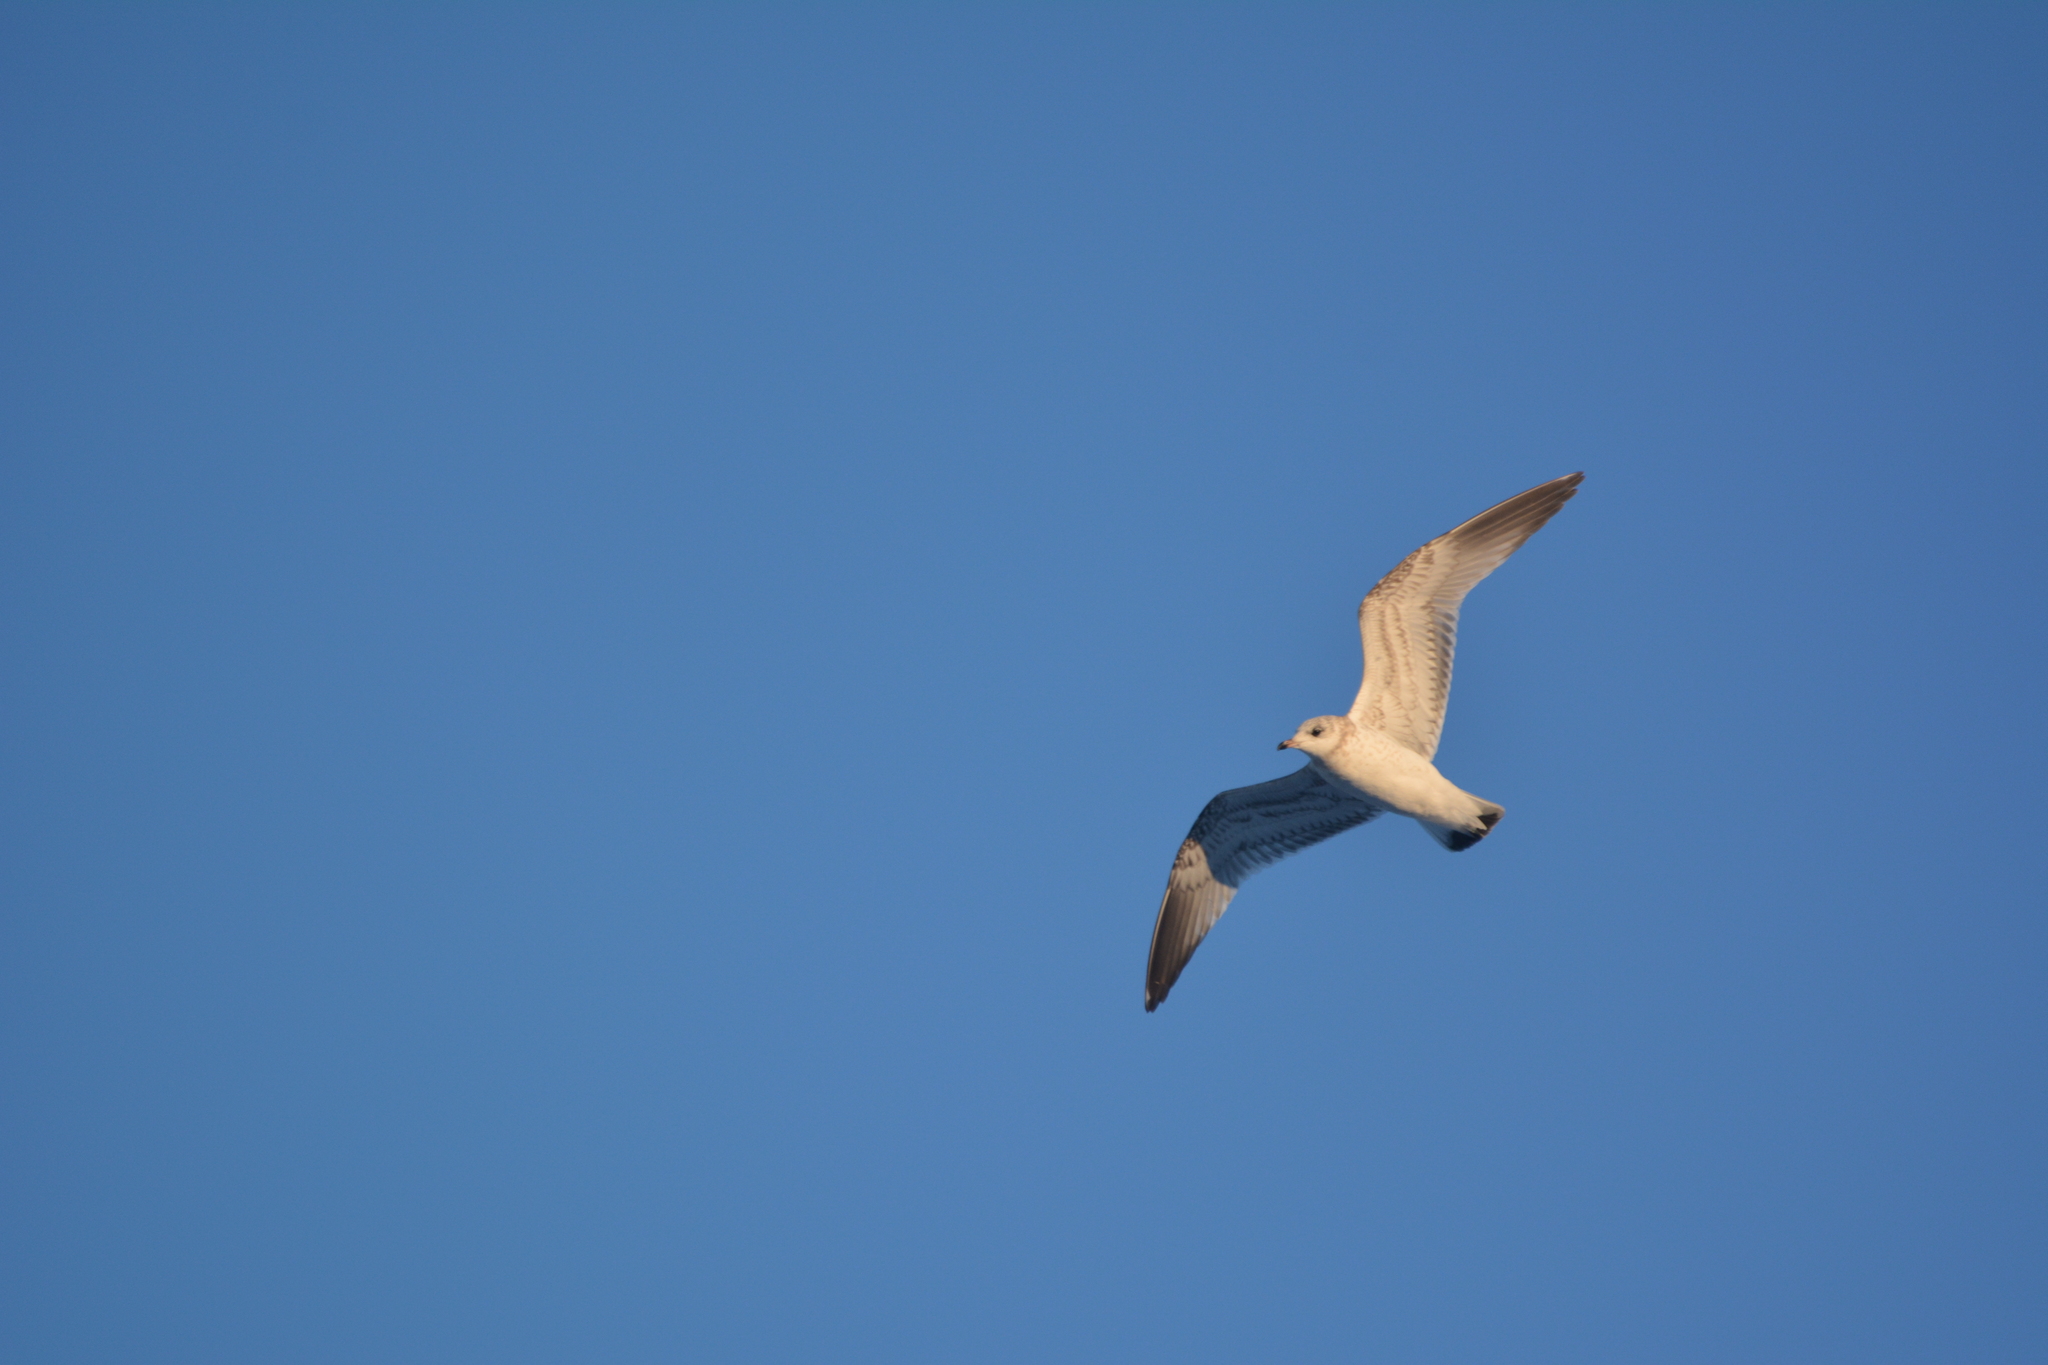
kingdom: Animalia
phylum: Chordata
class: Aves
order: Charadriiformes
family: Laridae
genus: Larus
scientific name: Larus canus
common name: Mew gull
